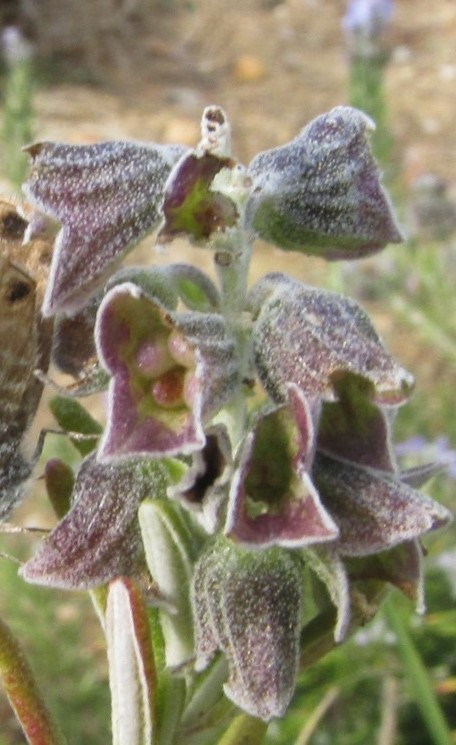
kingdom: Plantae
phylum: Tracheophyta
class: Magnoliopsida
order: Lamiales
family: Lamiaceae
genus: Salvia
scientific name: Salvia rosmarinus
